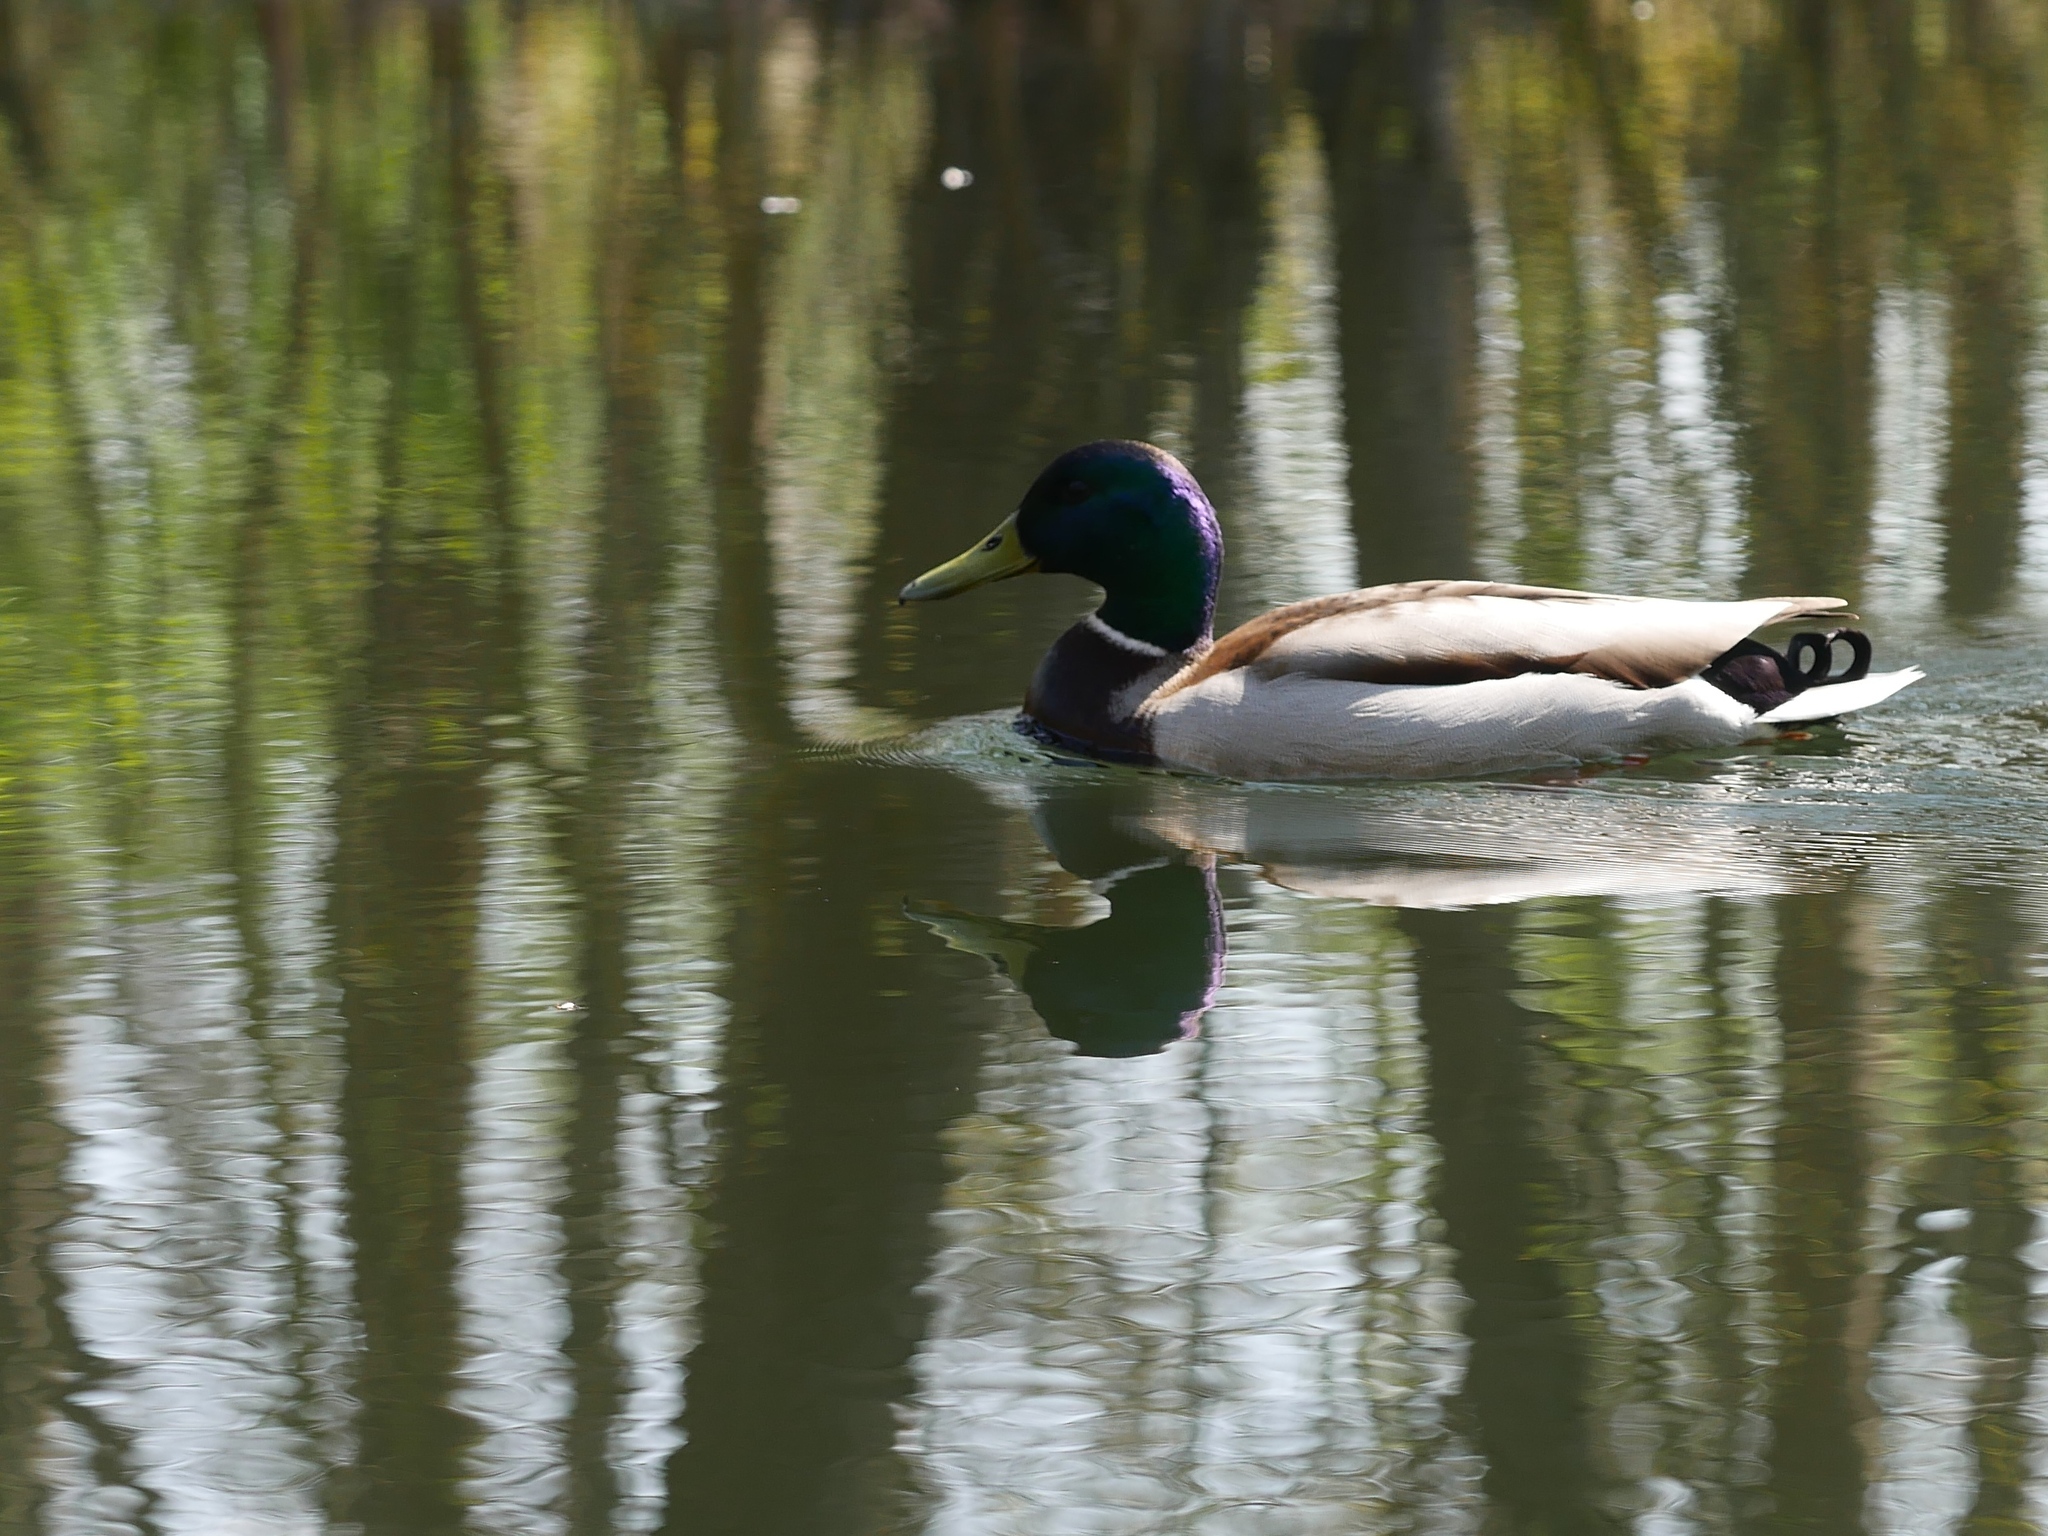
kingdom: Animalia
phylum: Chordata
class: Aves
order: Anseriformes
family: Anatidae
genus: Anas
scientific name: Anas platyrhynchos
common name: Mallard
